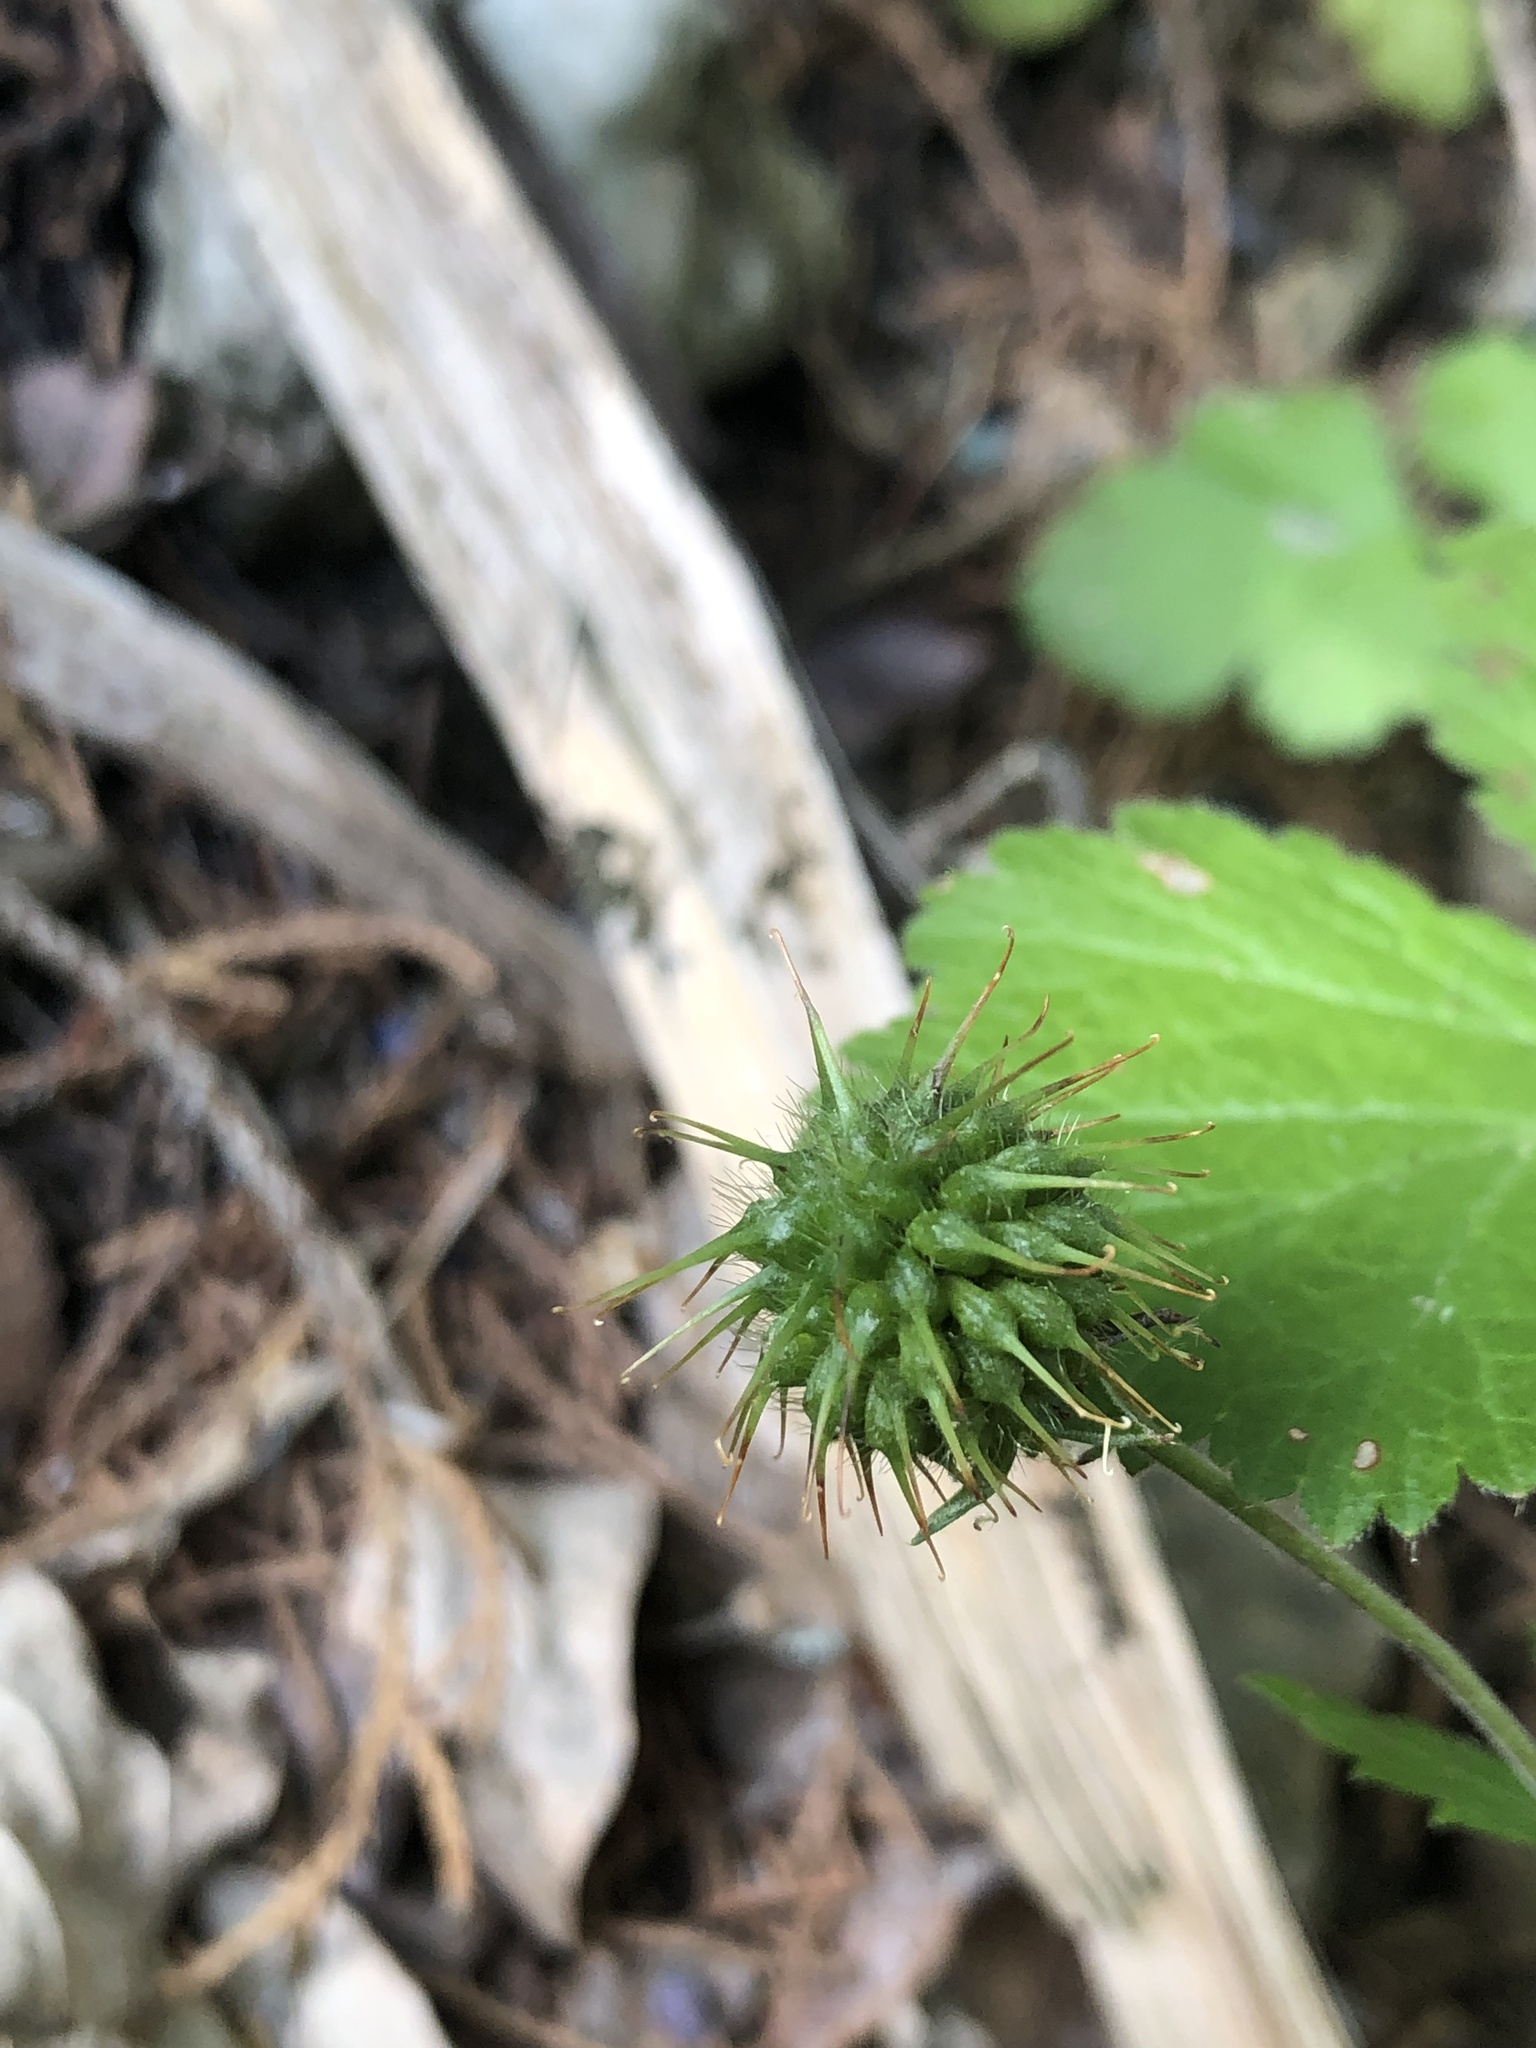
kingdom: Plantae
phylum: Tracheophyta
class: Magnoliopsida
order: Rosales
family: Rosaceae
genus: Geum
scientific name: Geum canadense
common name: White avens
